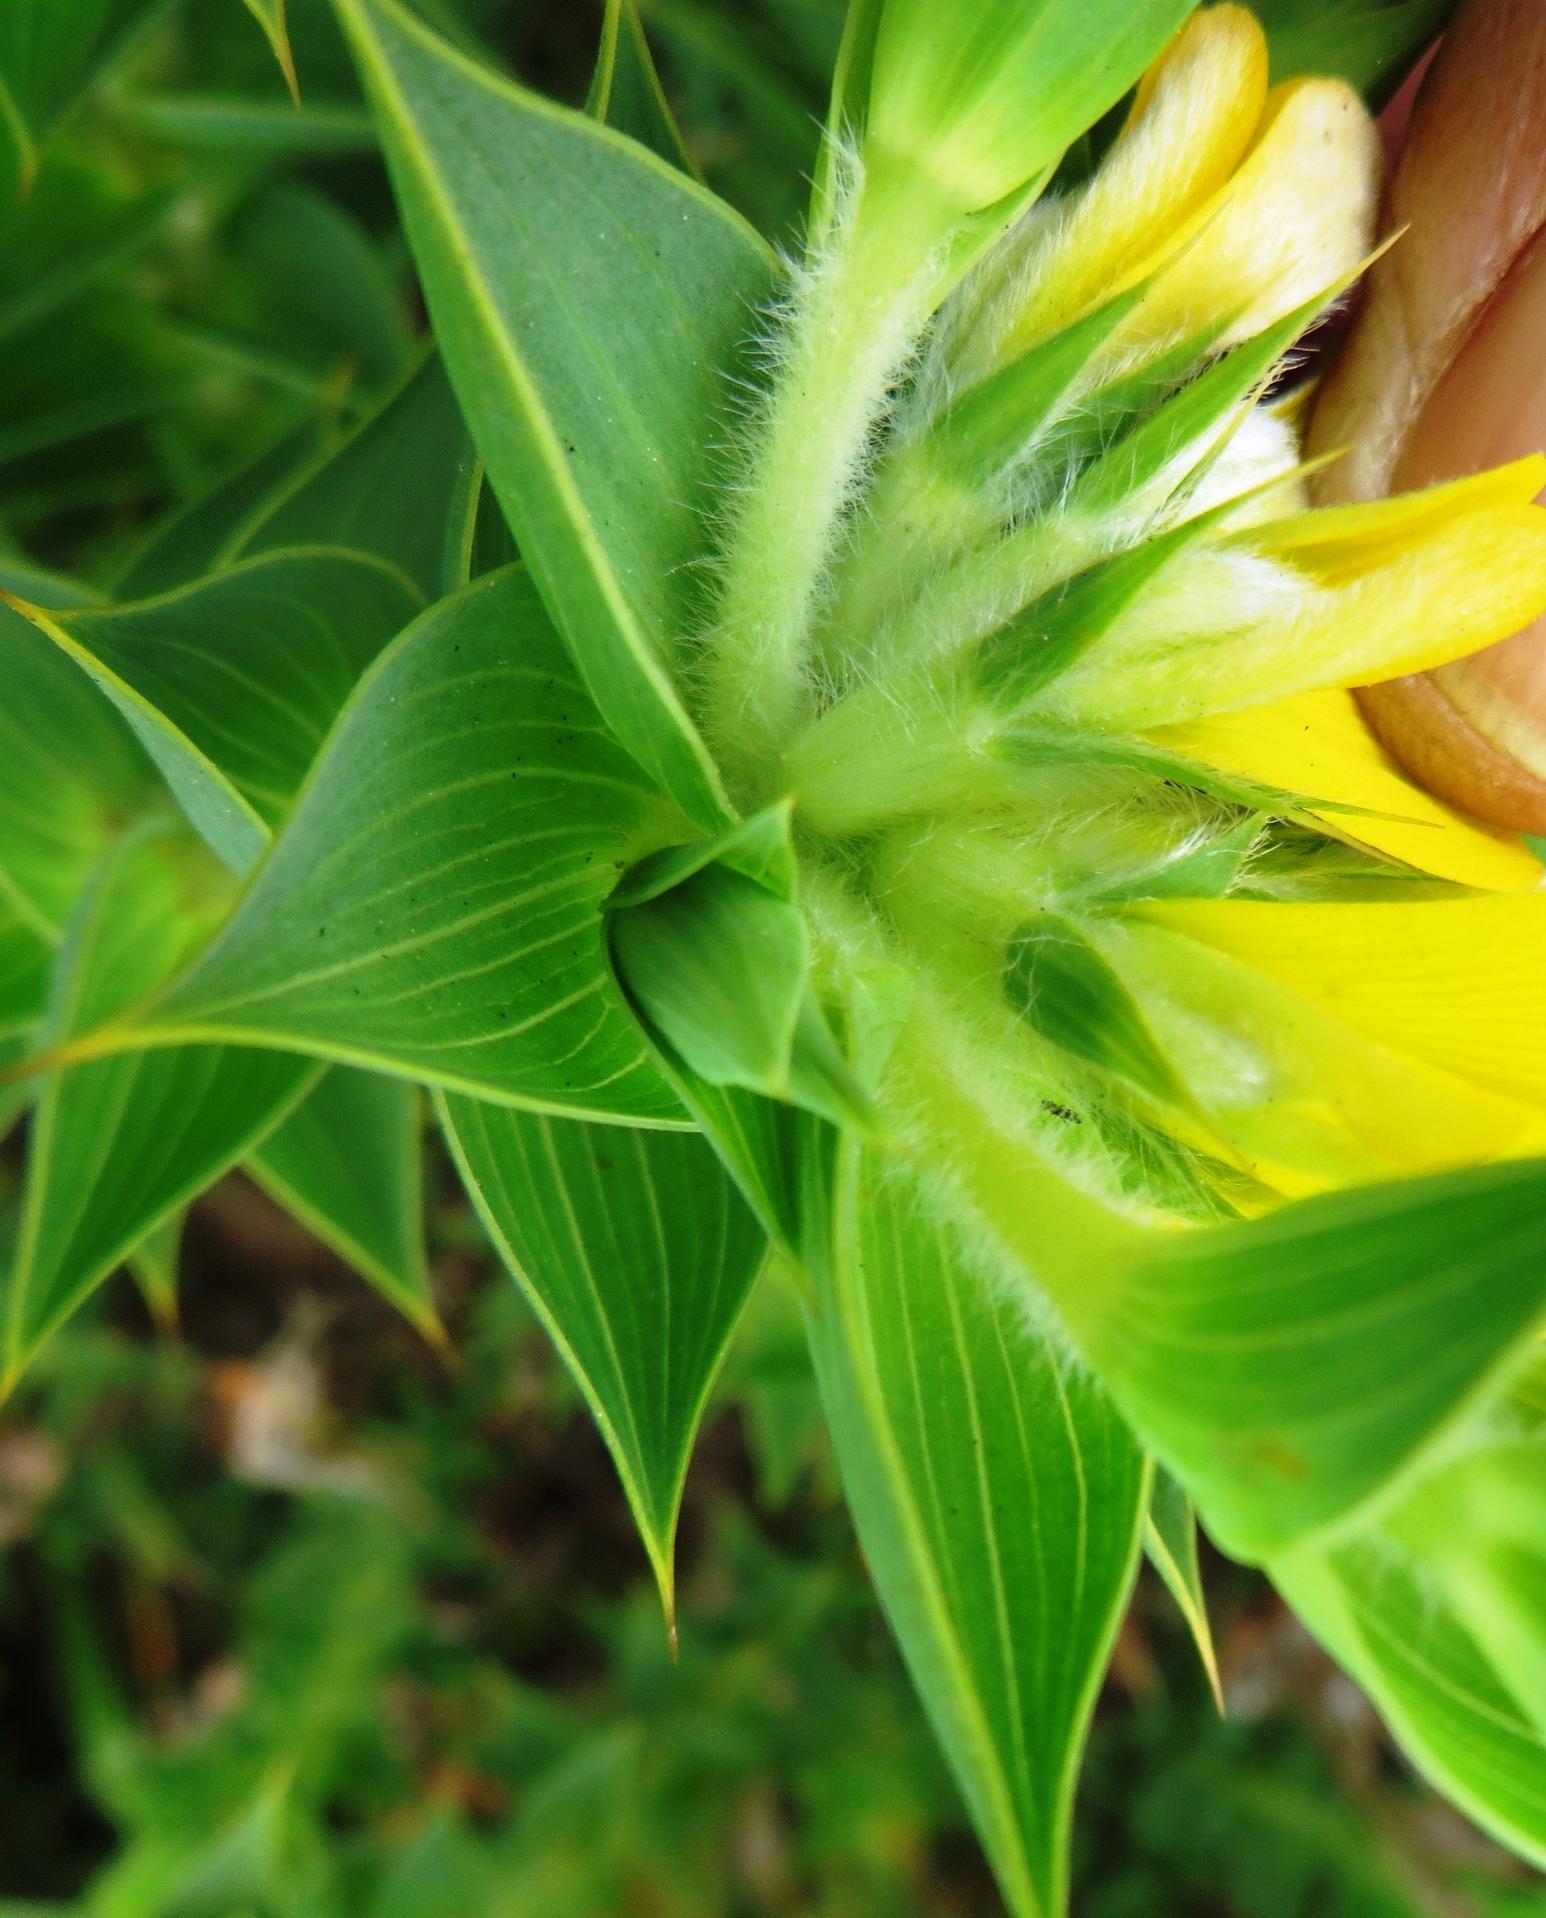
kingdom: Plantae
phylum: Tracheophyta
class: Magnoliopsida
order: Fabales
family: Fabaceae
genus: Aspalathus
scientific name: Aspalathus cordata
